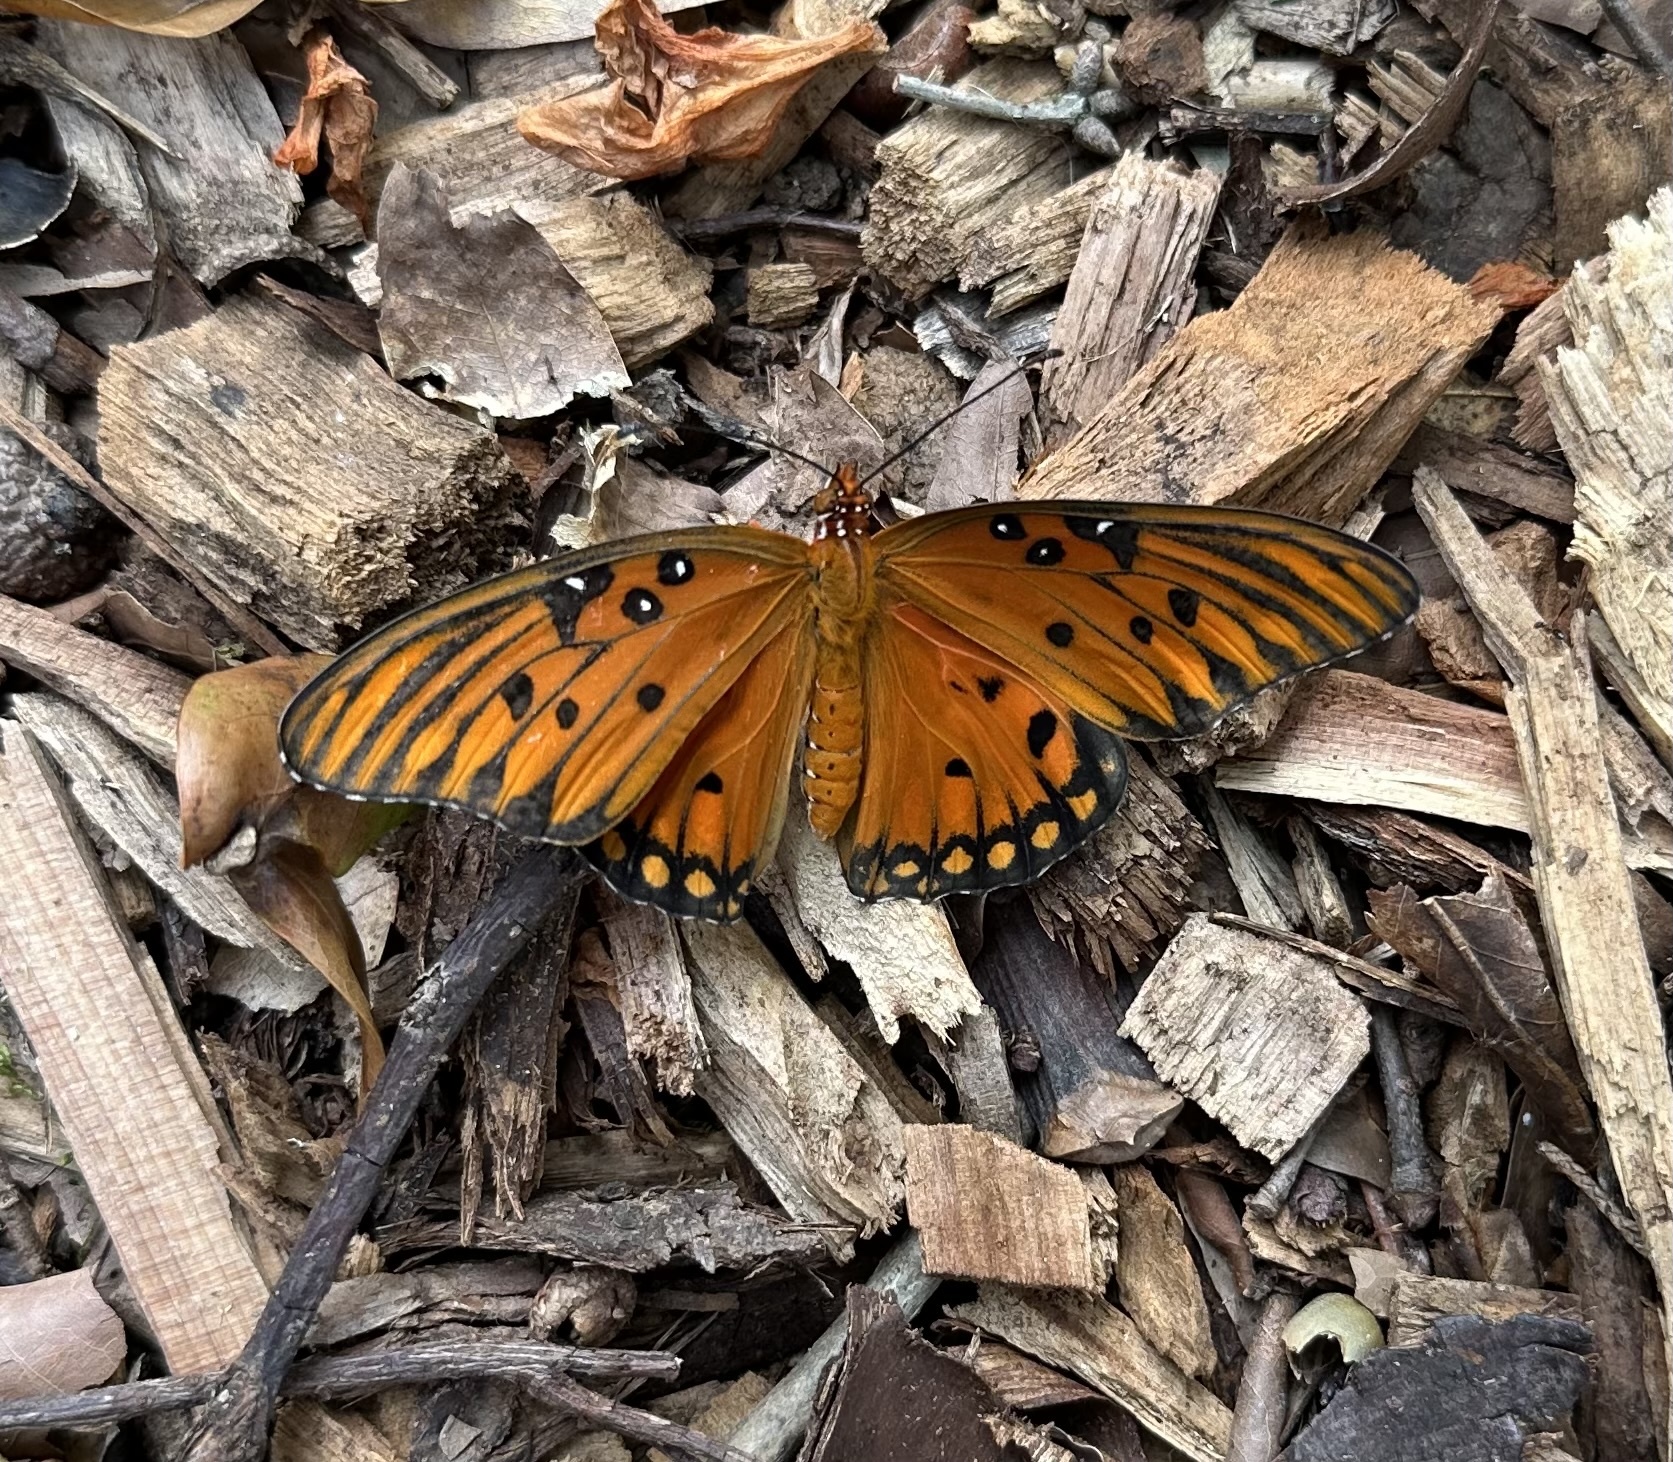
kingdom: Animalia
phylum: Arthropoda
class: Insecta
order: Lepidoptera
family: Nymphalidae
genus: Dione
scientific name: Dione vanillae
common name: Gulf fritillary
